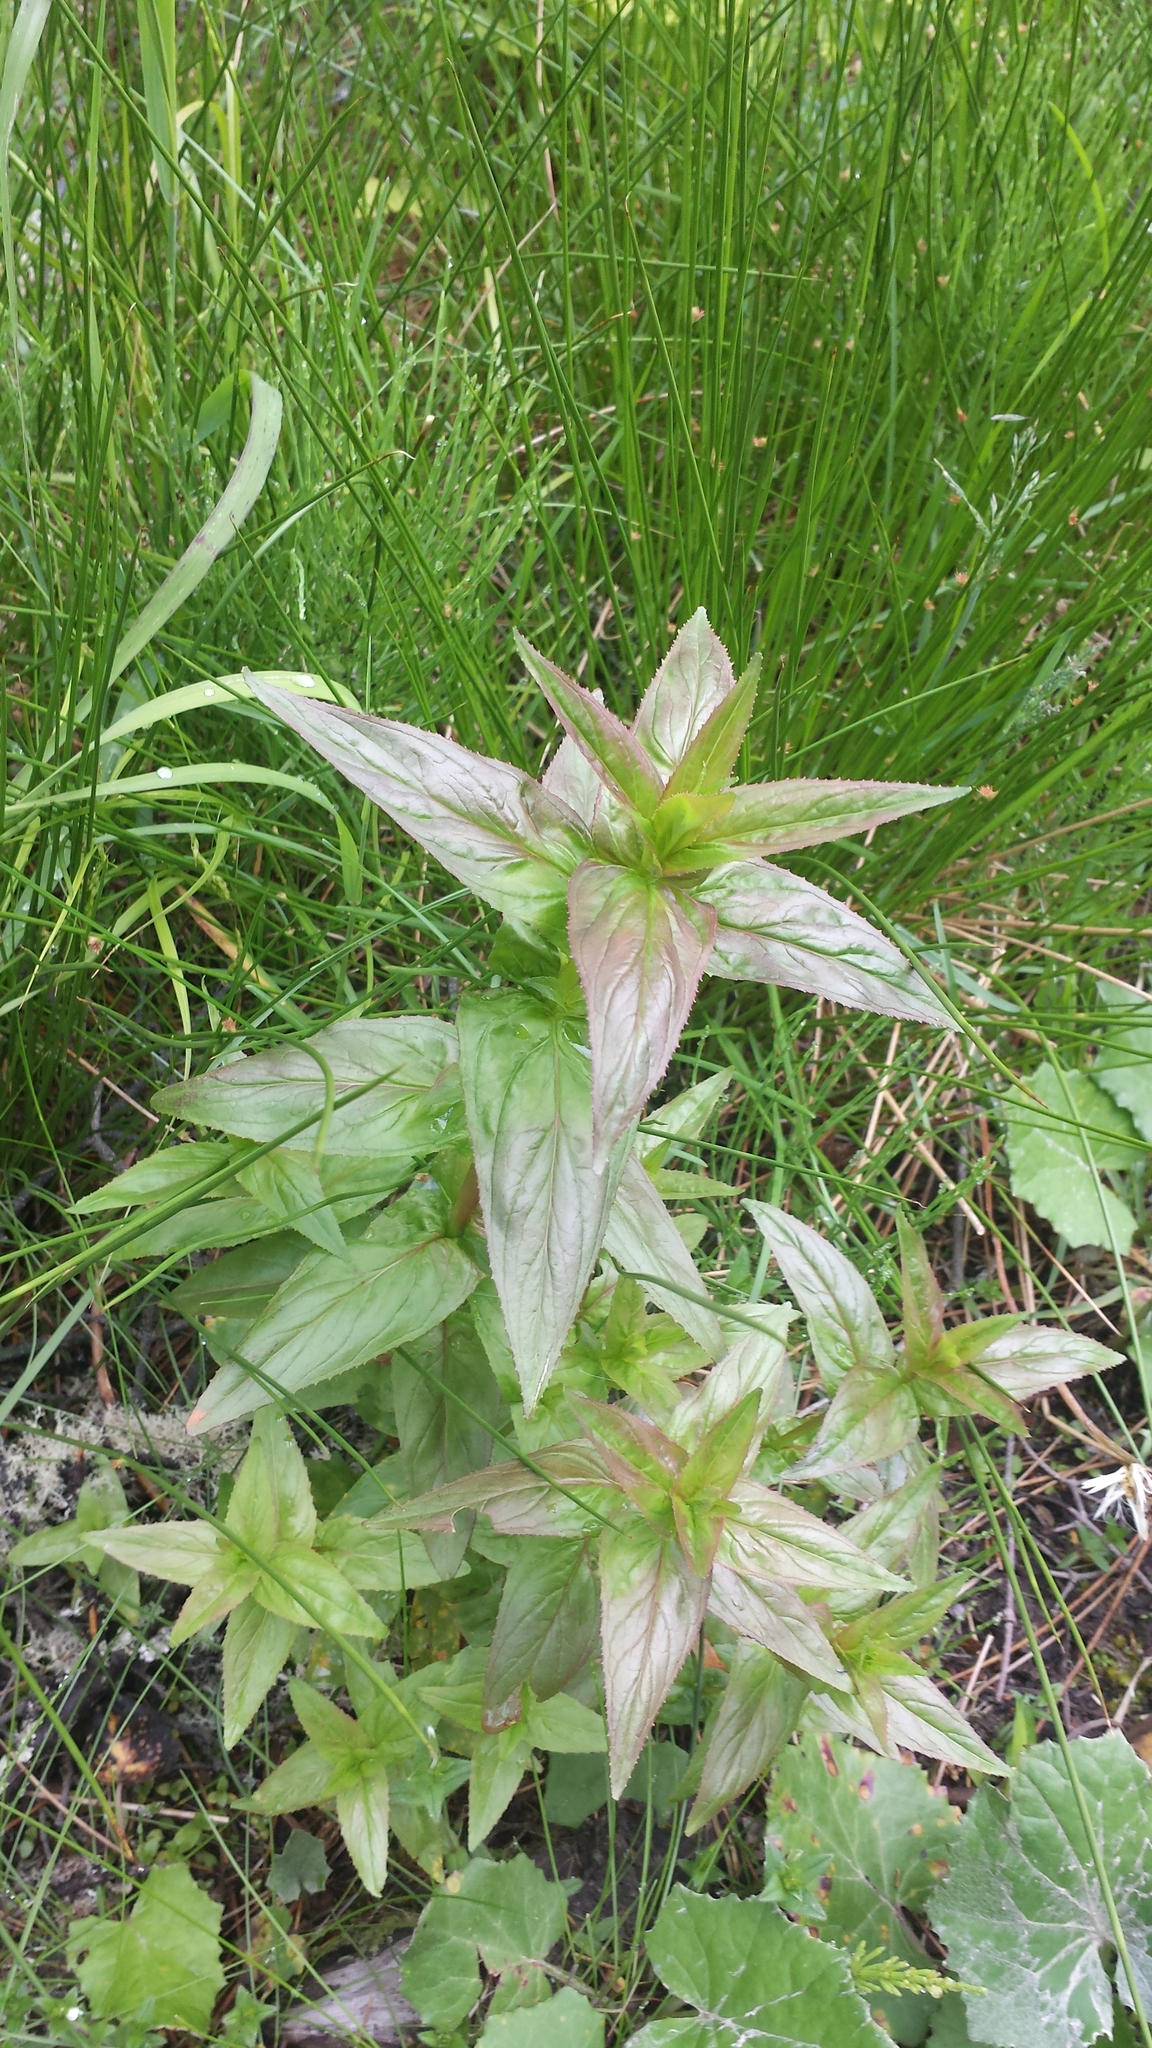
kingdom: Plantae
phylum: Tracheophyta
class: Magnoliopsida
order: Myrtales
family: Onagraceae
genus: Epilobium
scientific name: Epilobium ciliatum
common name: American willowherb
